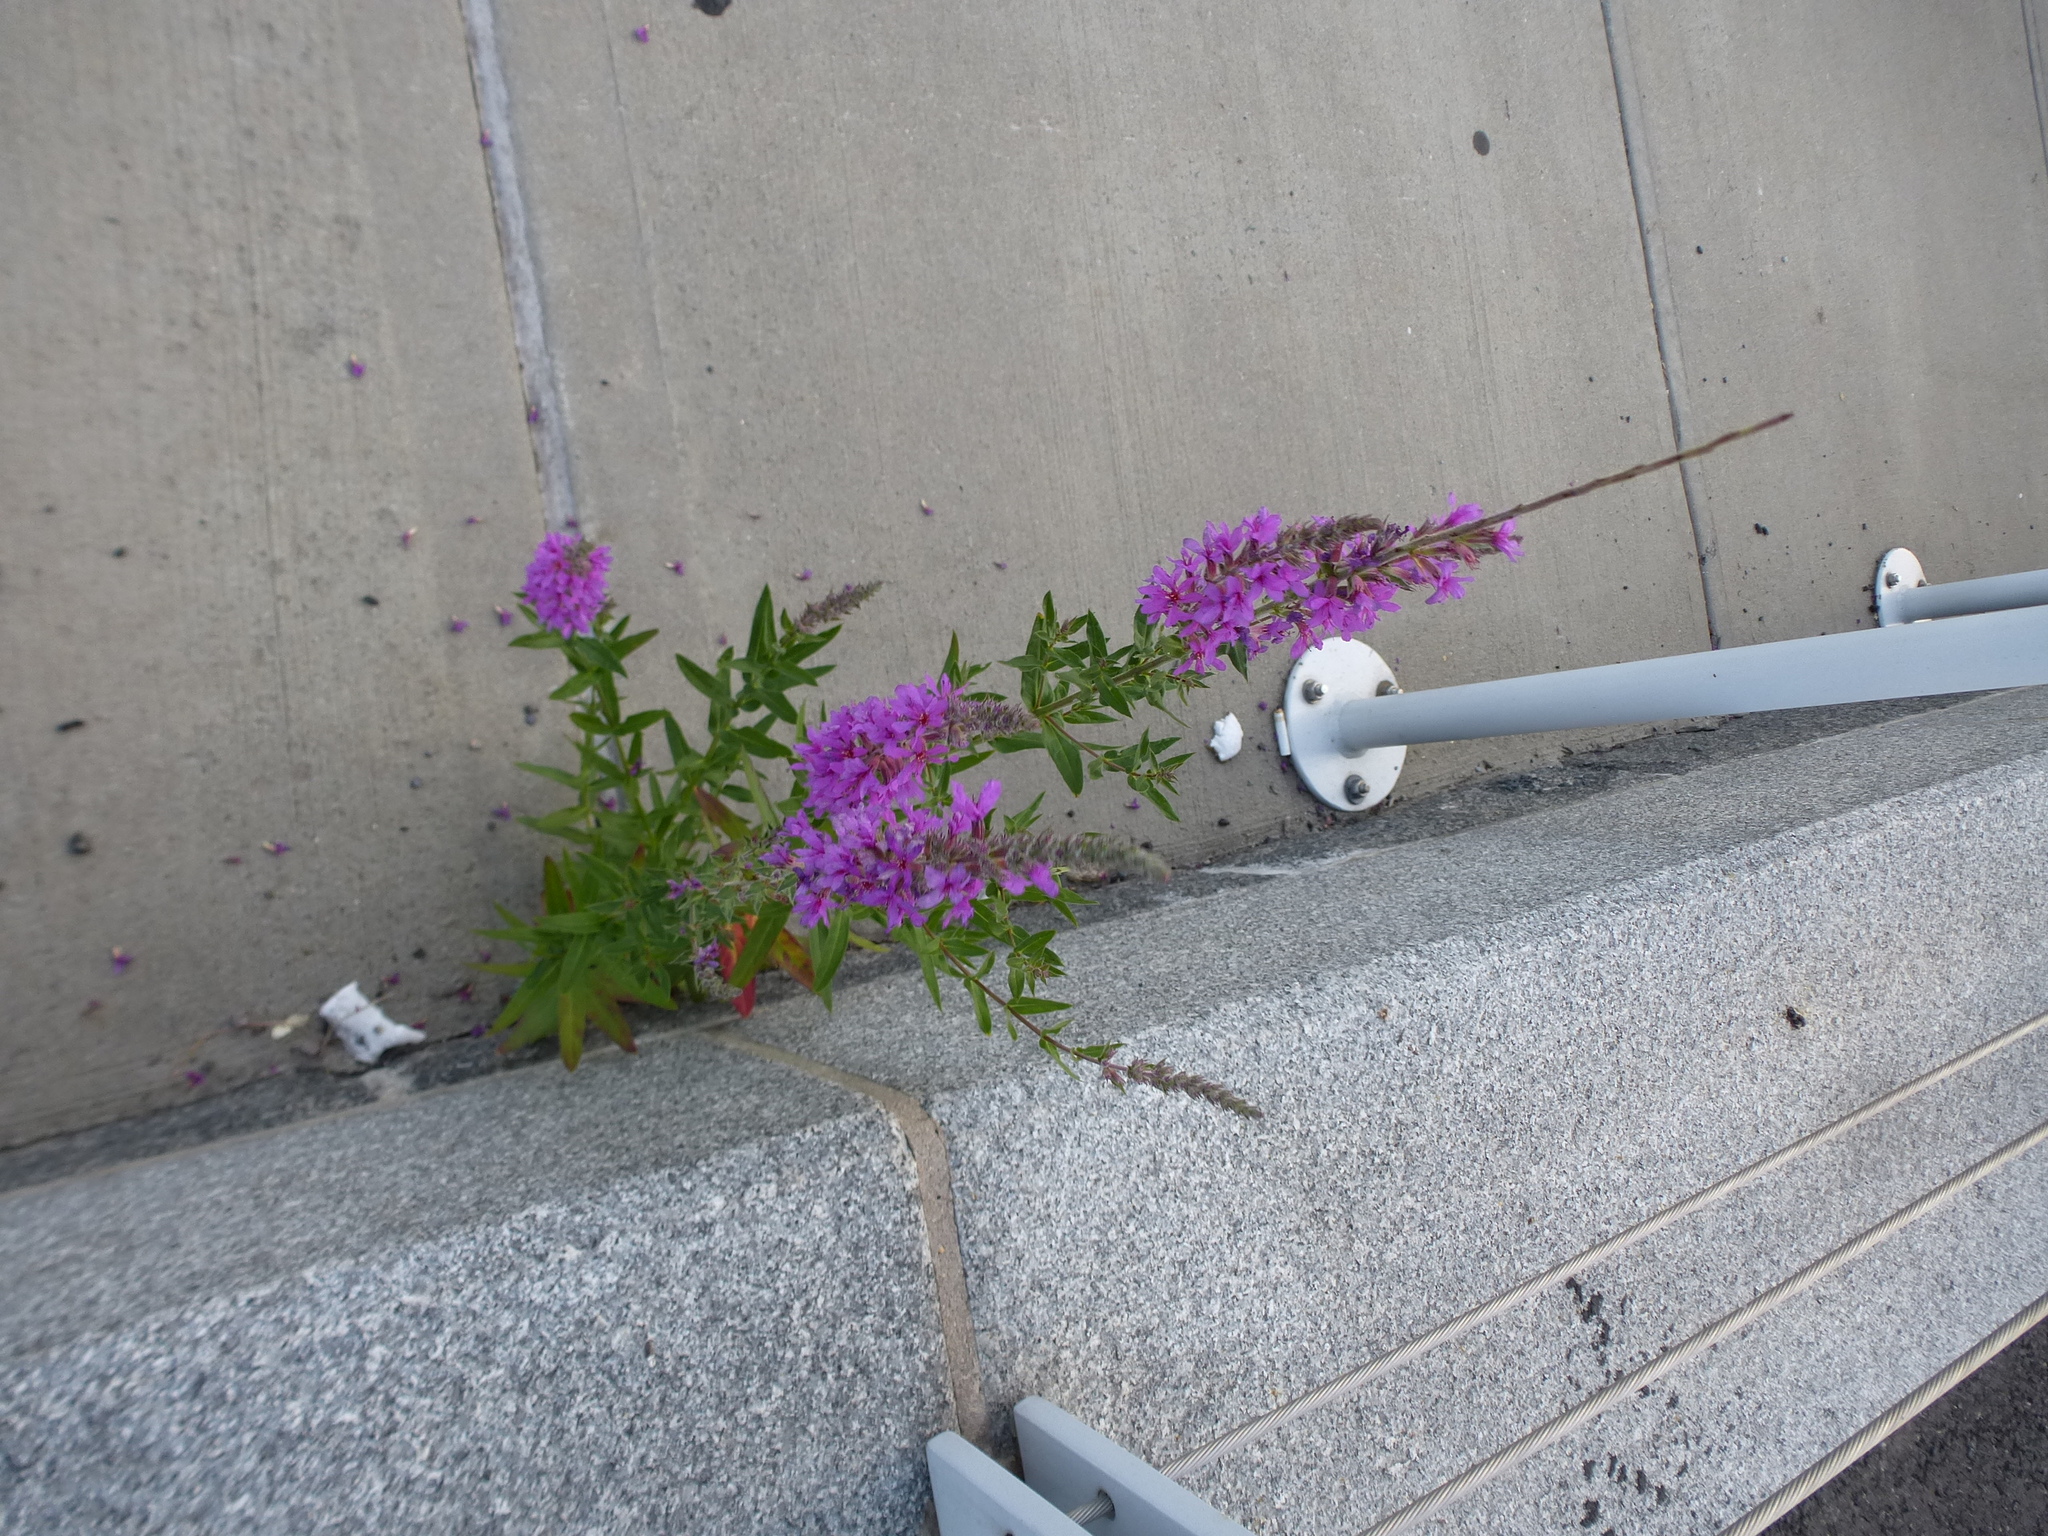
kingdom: Plantae
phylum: Tracheophyta
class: Magnoliopsida
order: Myrtales
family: Lythraceae
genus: Lythrum
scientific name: Lythrum salicaria
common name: Purple loosestrife
